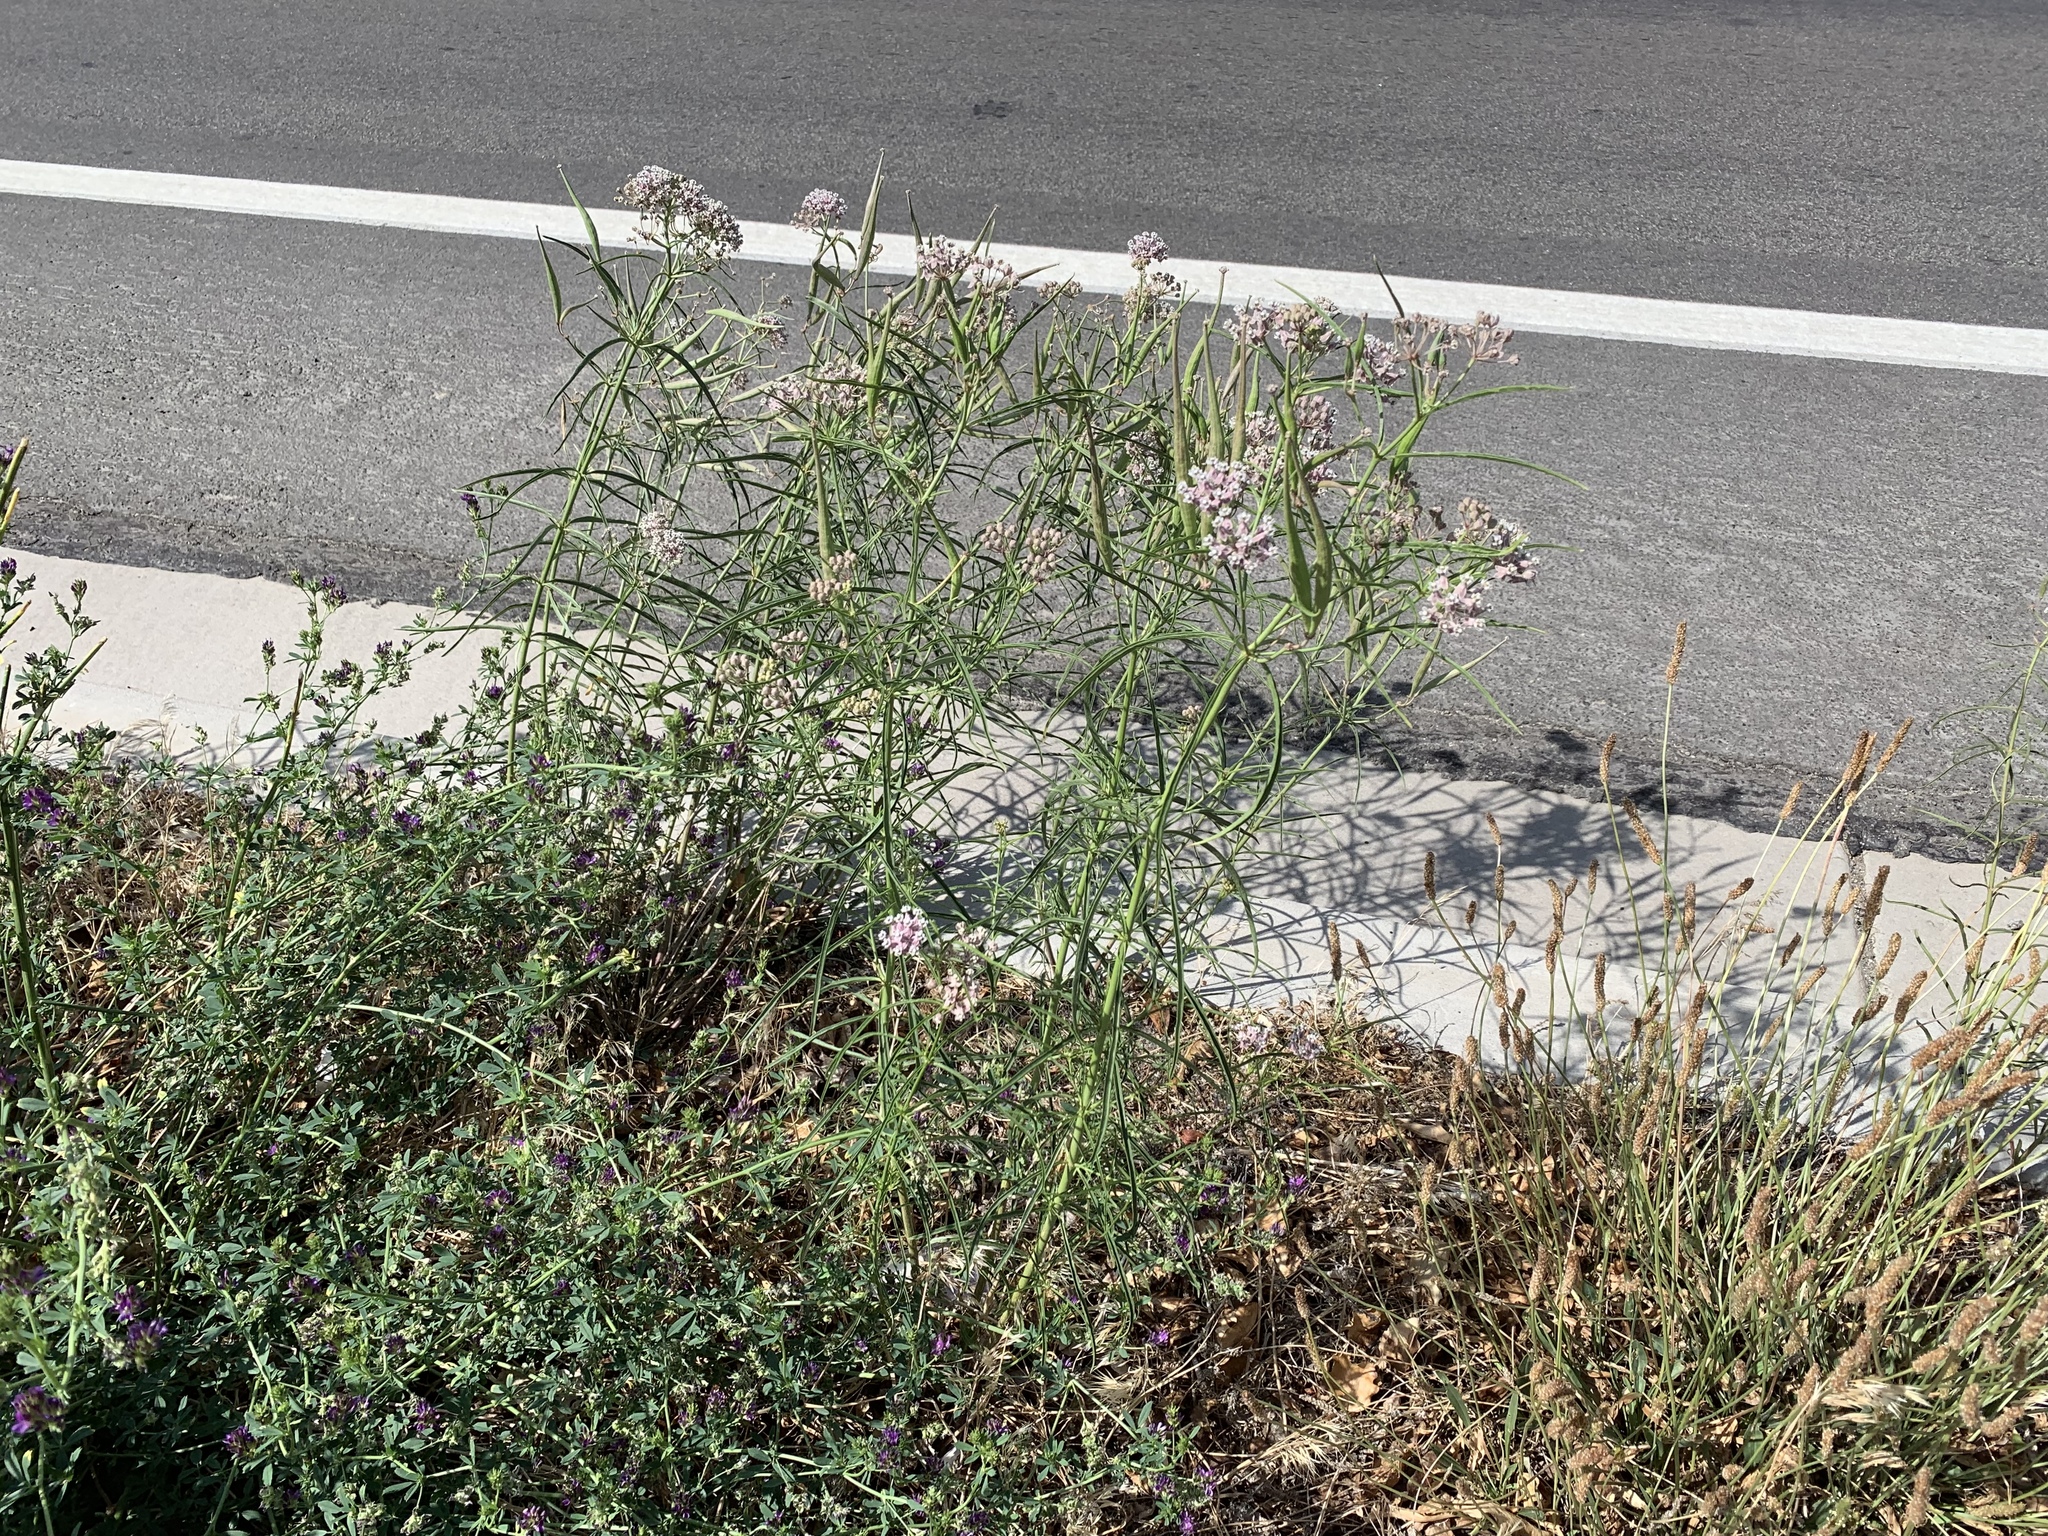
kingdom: Plantae
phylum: Tracheophyta
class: Magnoliopsida
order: Gentianales
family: Apocynaceae
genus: Asclepias
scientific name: Asclepias fascicularis
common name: Mexican milkweed
